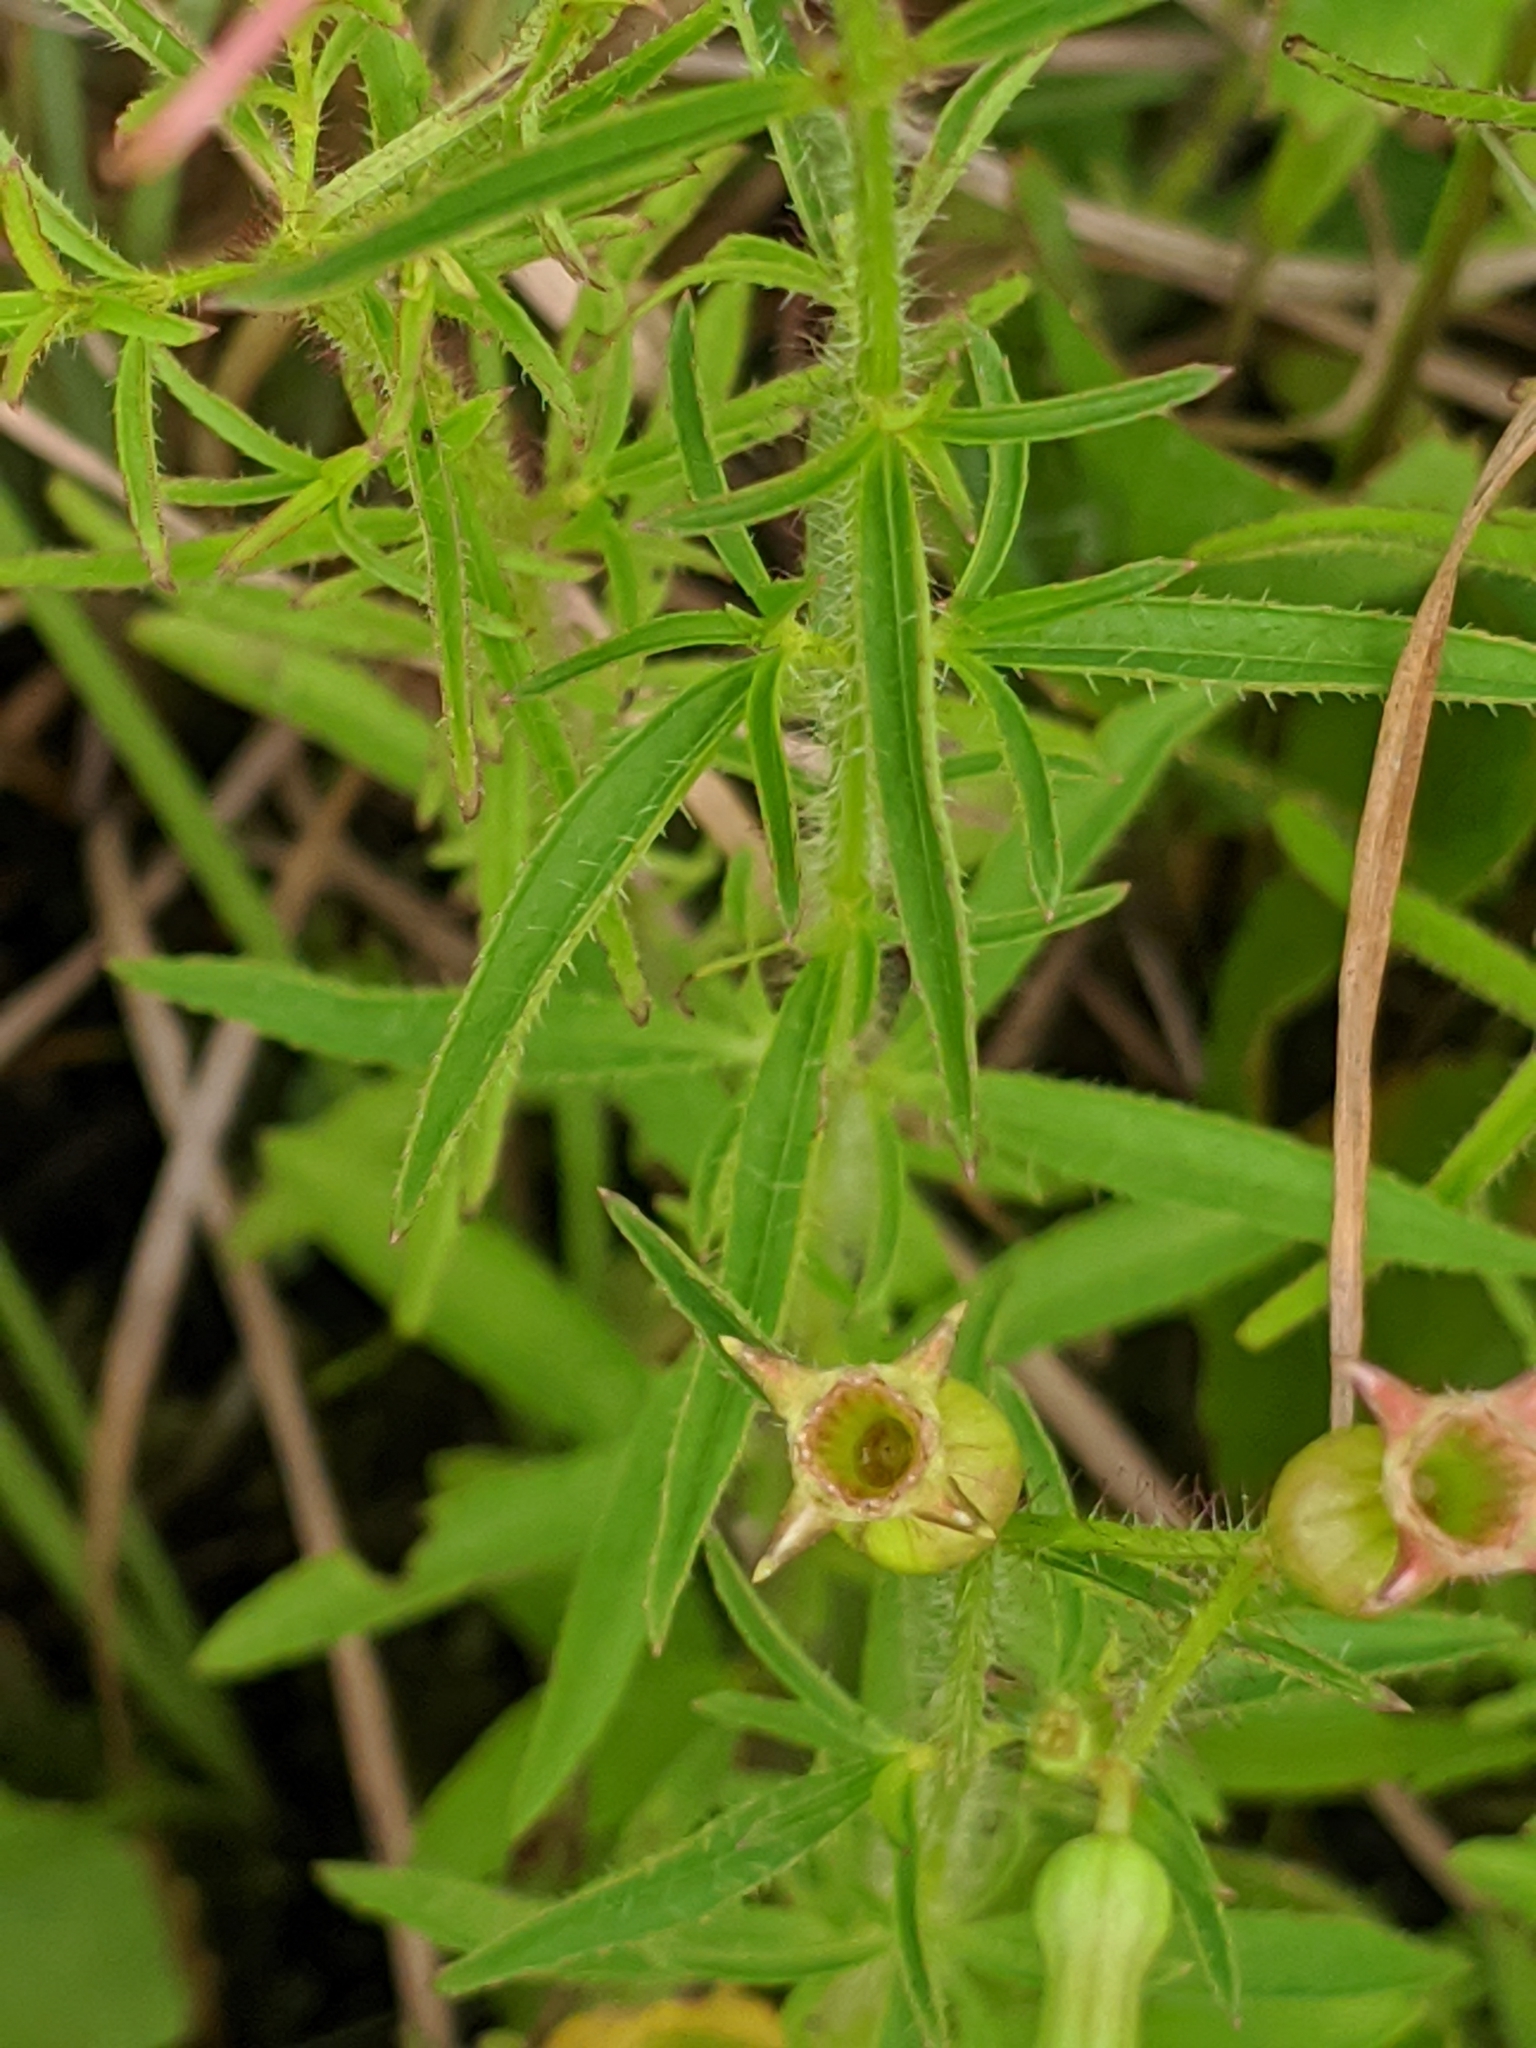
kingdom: Plantae
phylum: Tracheophyta
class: Magnoliopsida
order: Myrtales
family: Melastomataceae
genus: Rhexia
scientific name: Rhexia mariana
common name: Dull meadow-pitcher
